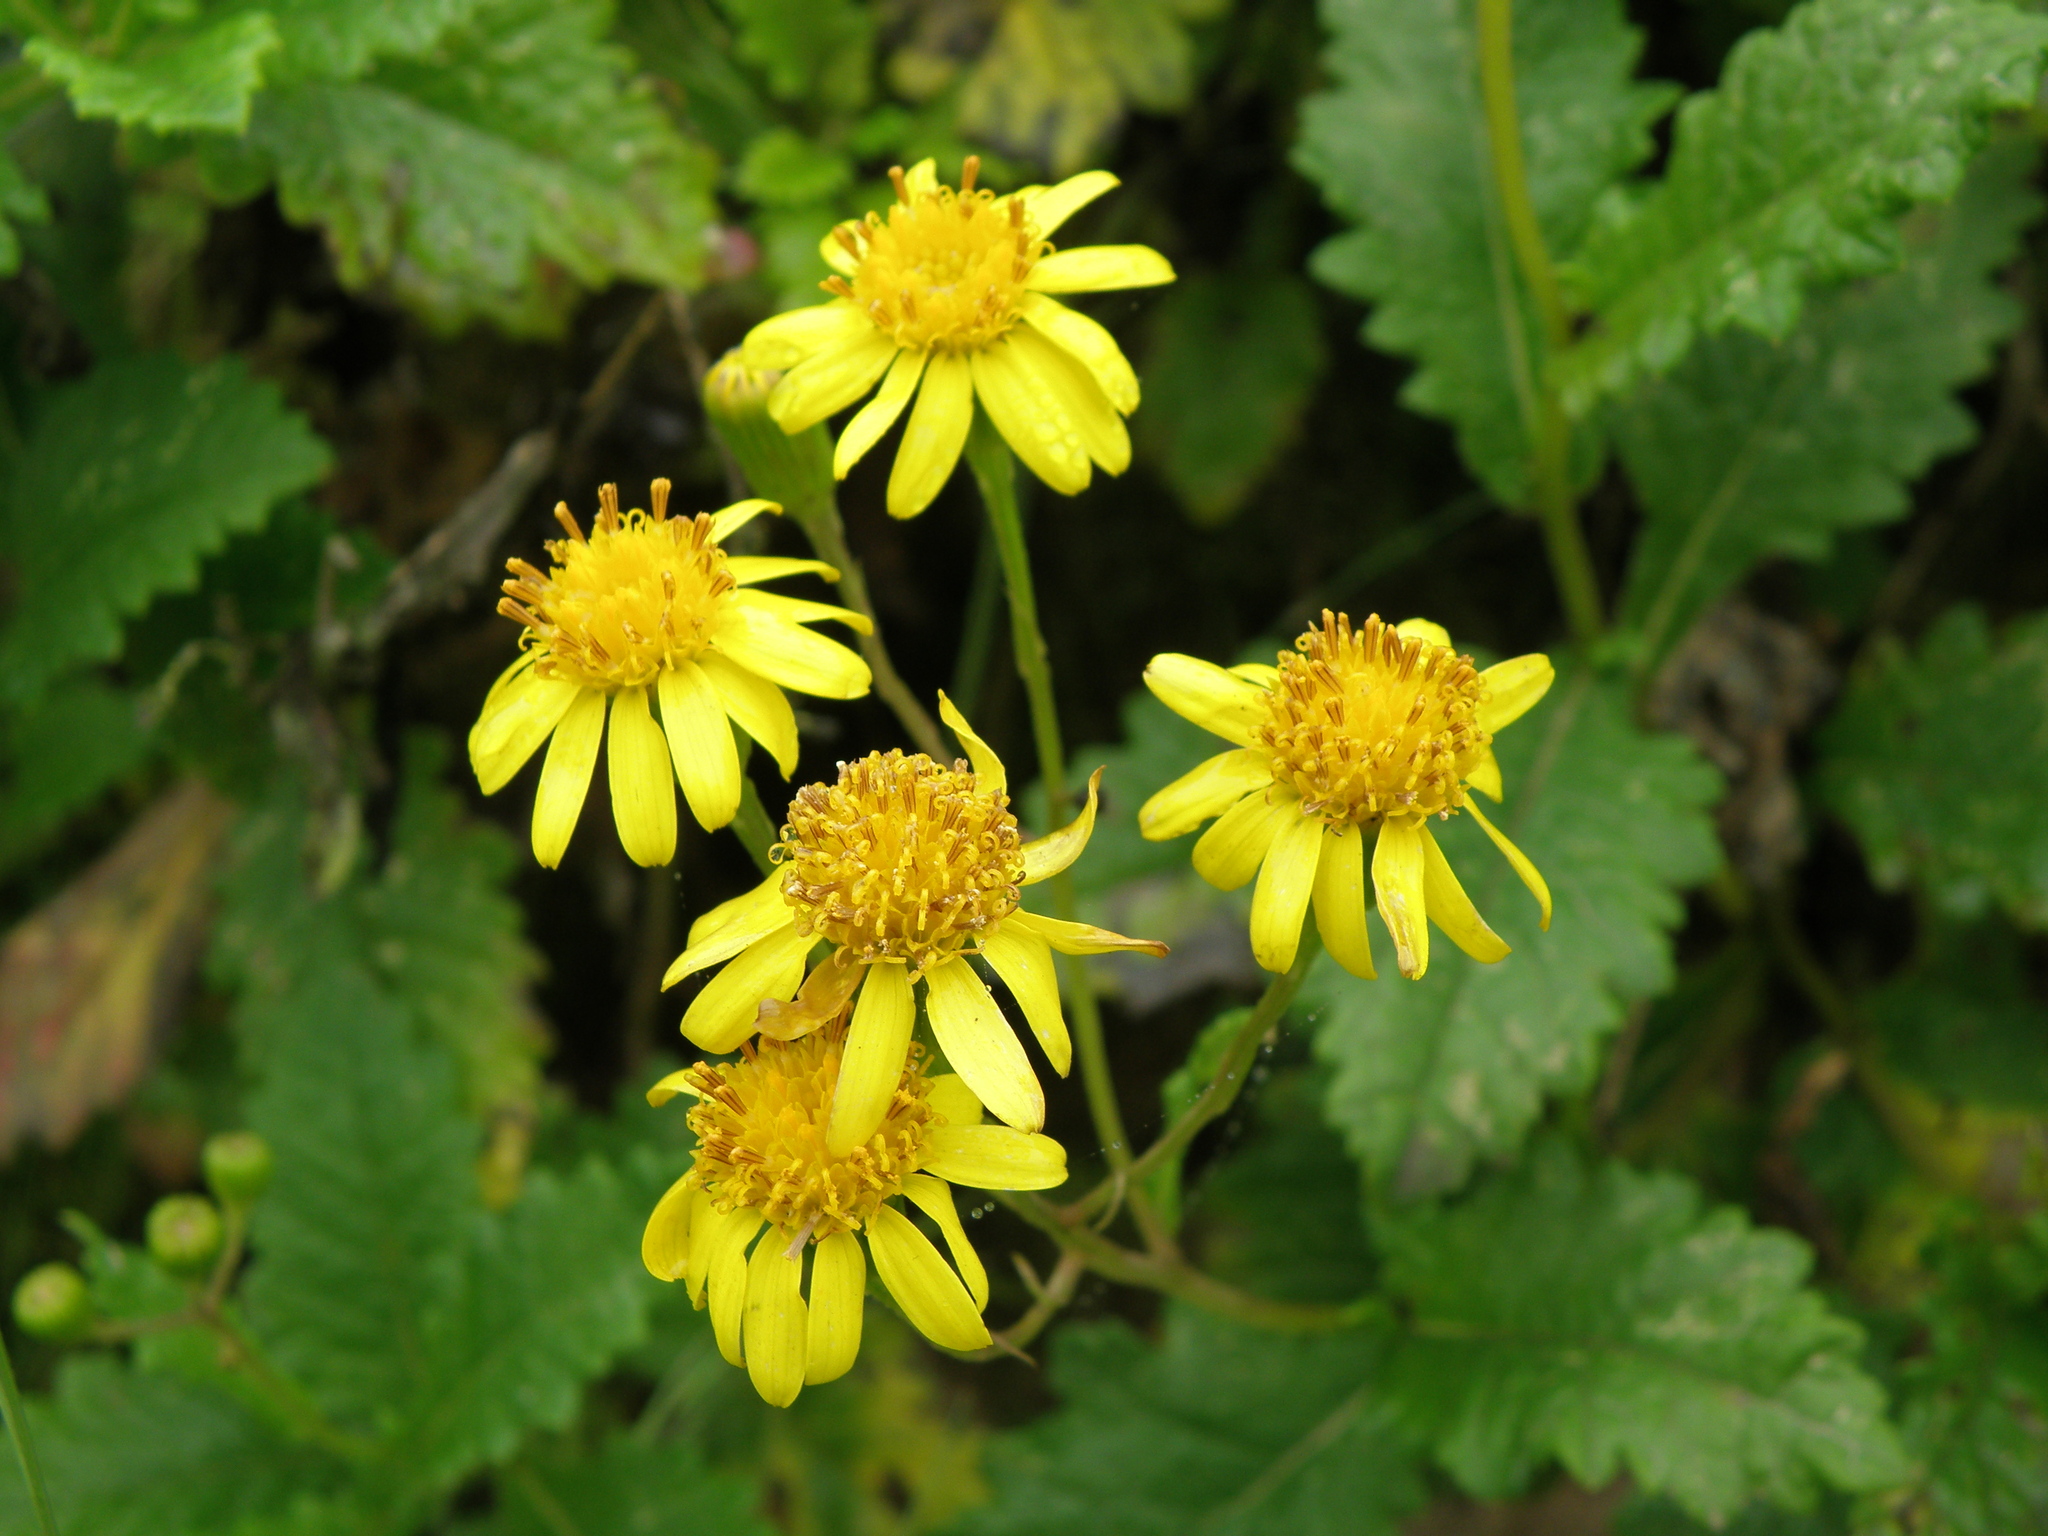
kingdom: Plantae
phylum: Tracheophyta
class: Magnoliopsida
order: Asterales
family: Asteraceae
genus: Lomanthus
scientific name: Lomanthus lomincola
